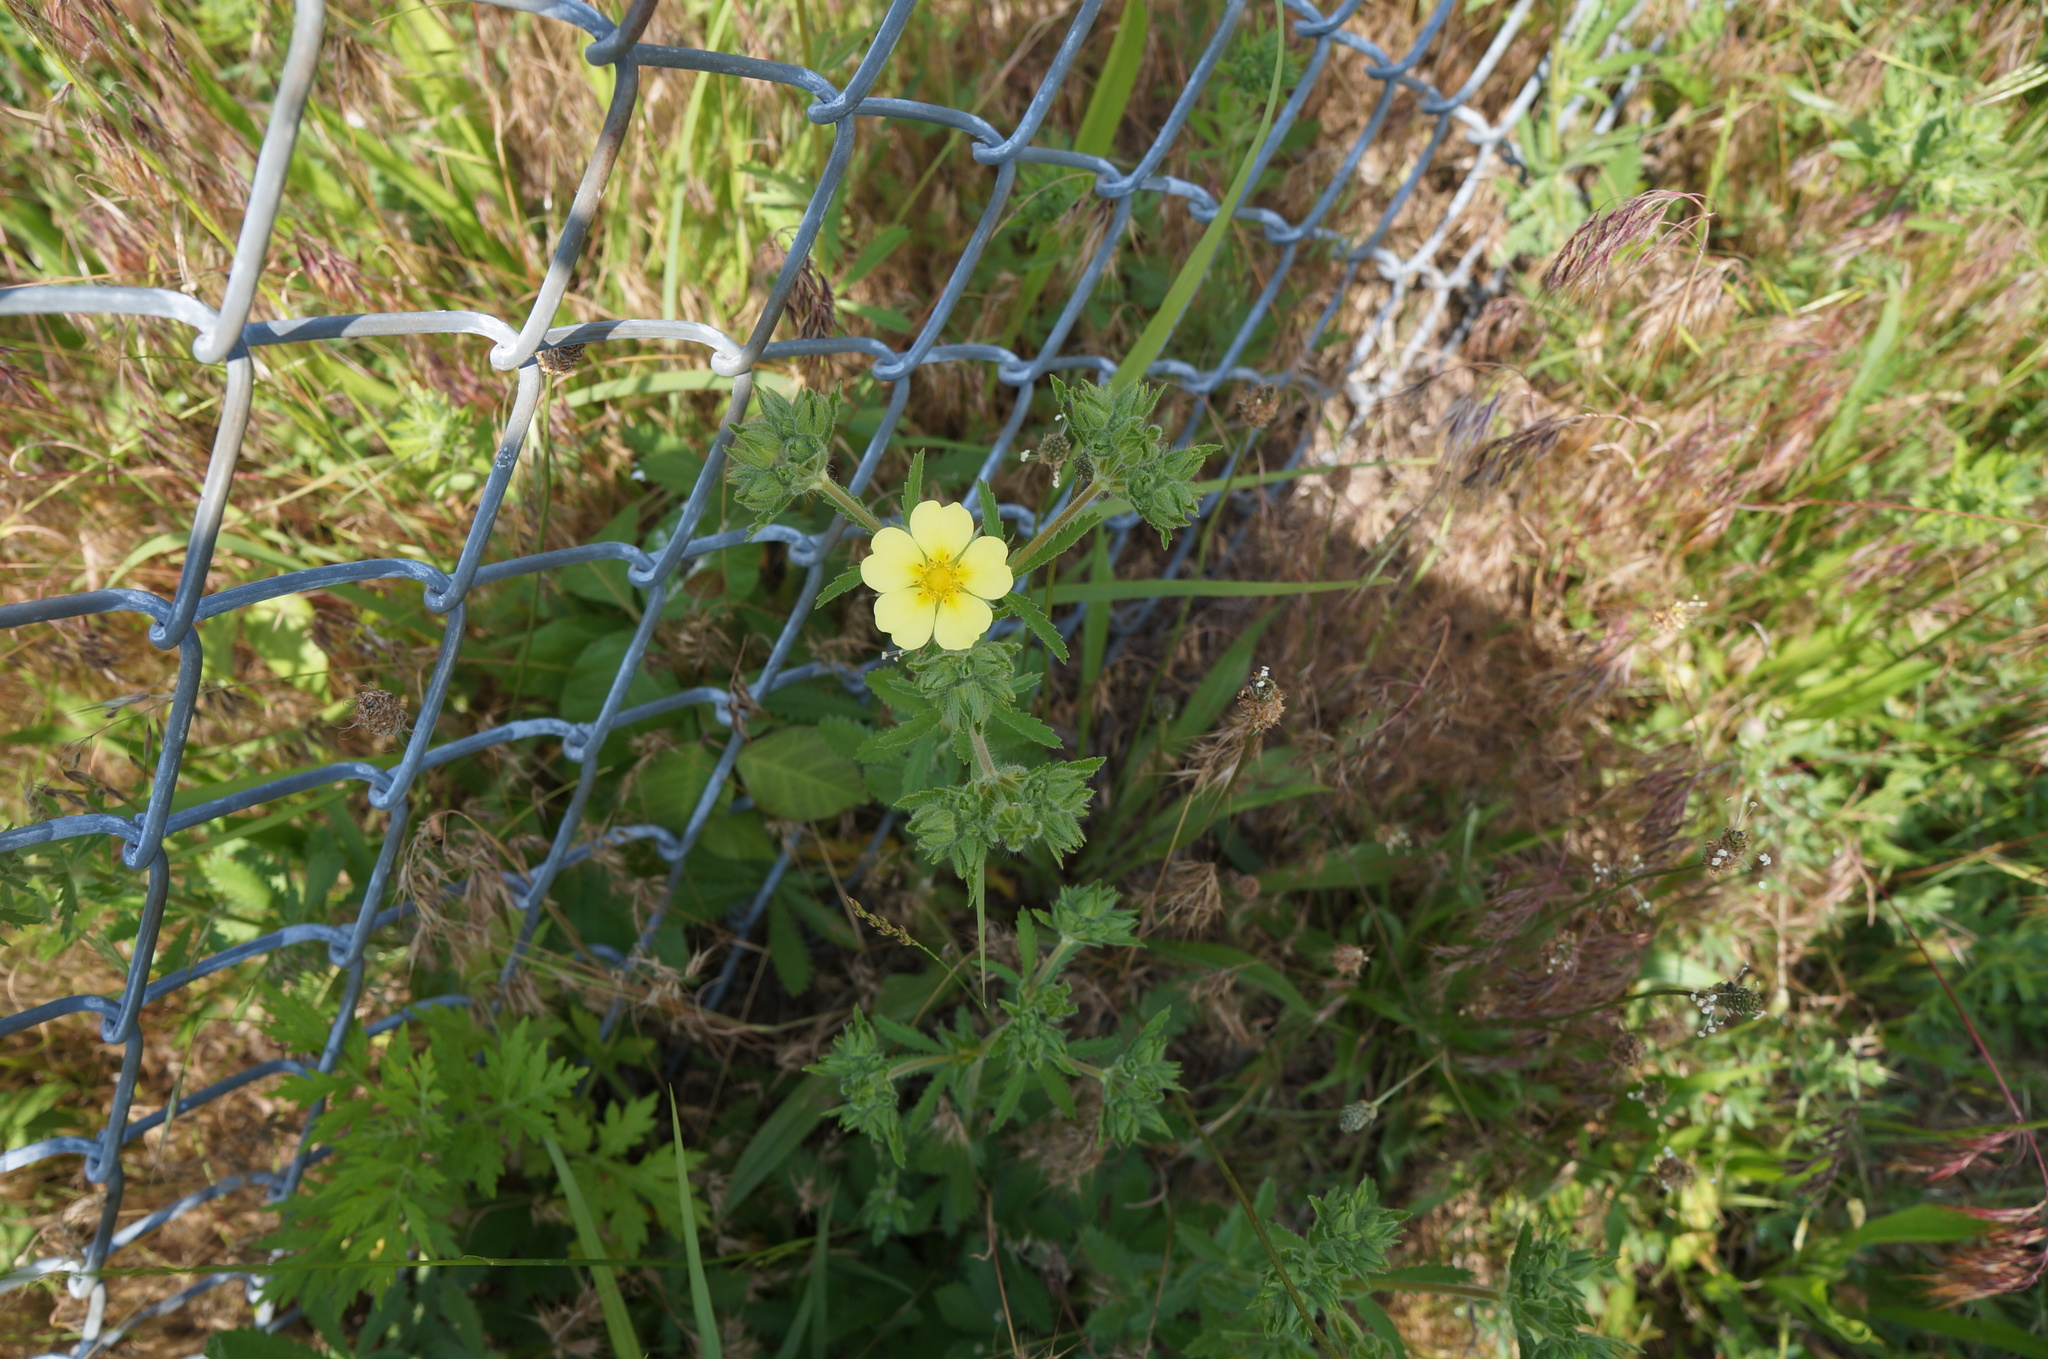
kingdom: Plantae
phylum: Tracheophyta
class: Magnoliopsida
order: Rosales
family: Rosaceae
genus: Potentilla
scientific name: Potentilla recta
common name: Sulphur cinquefoil
